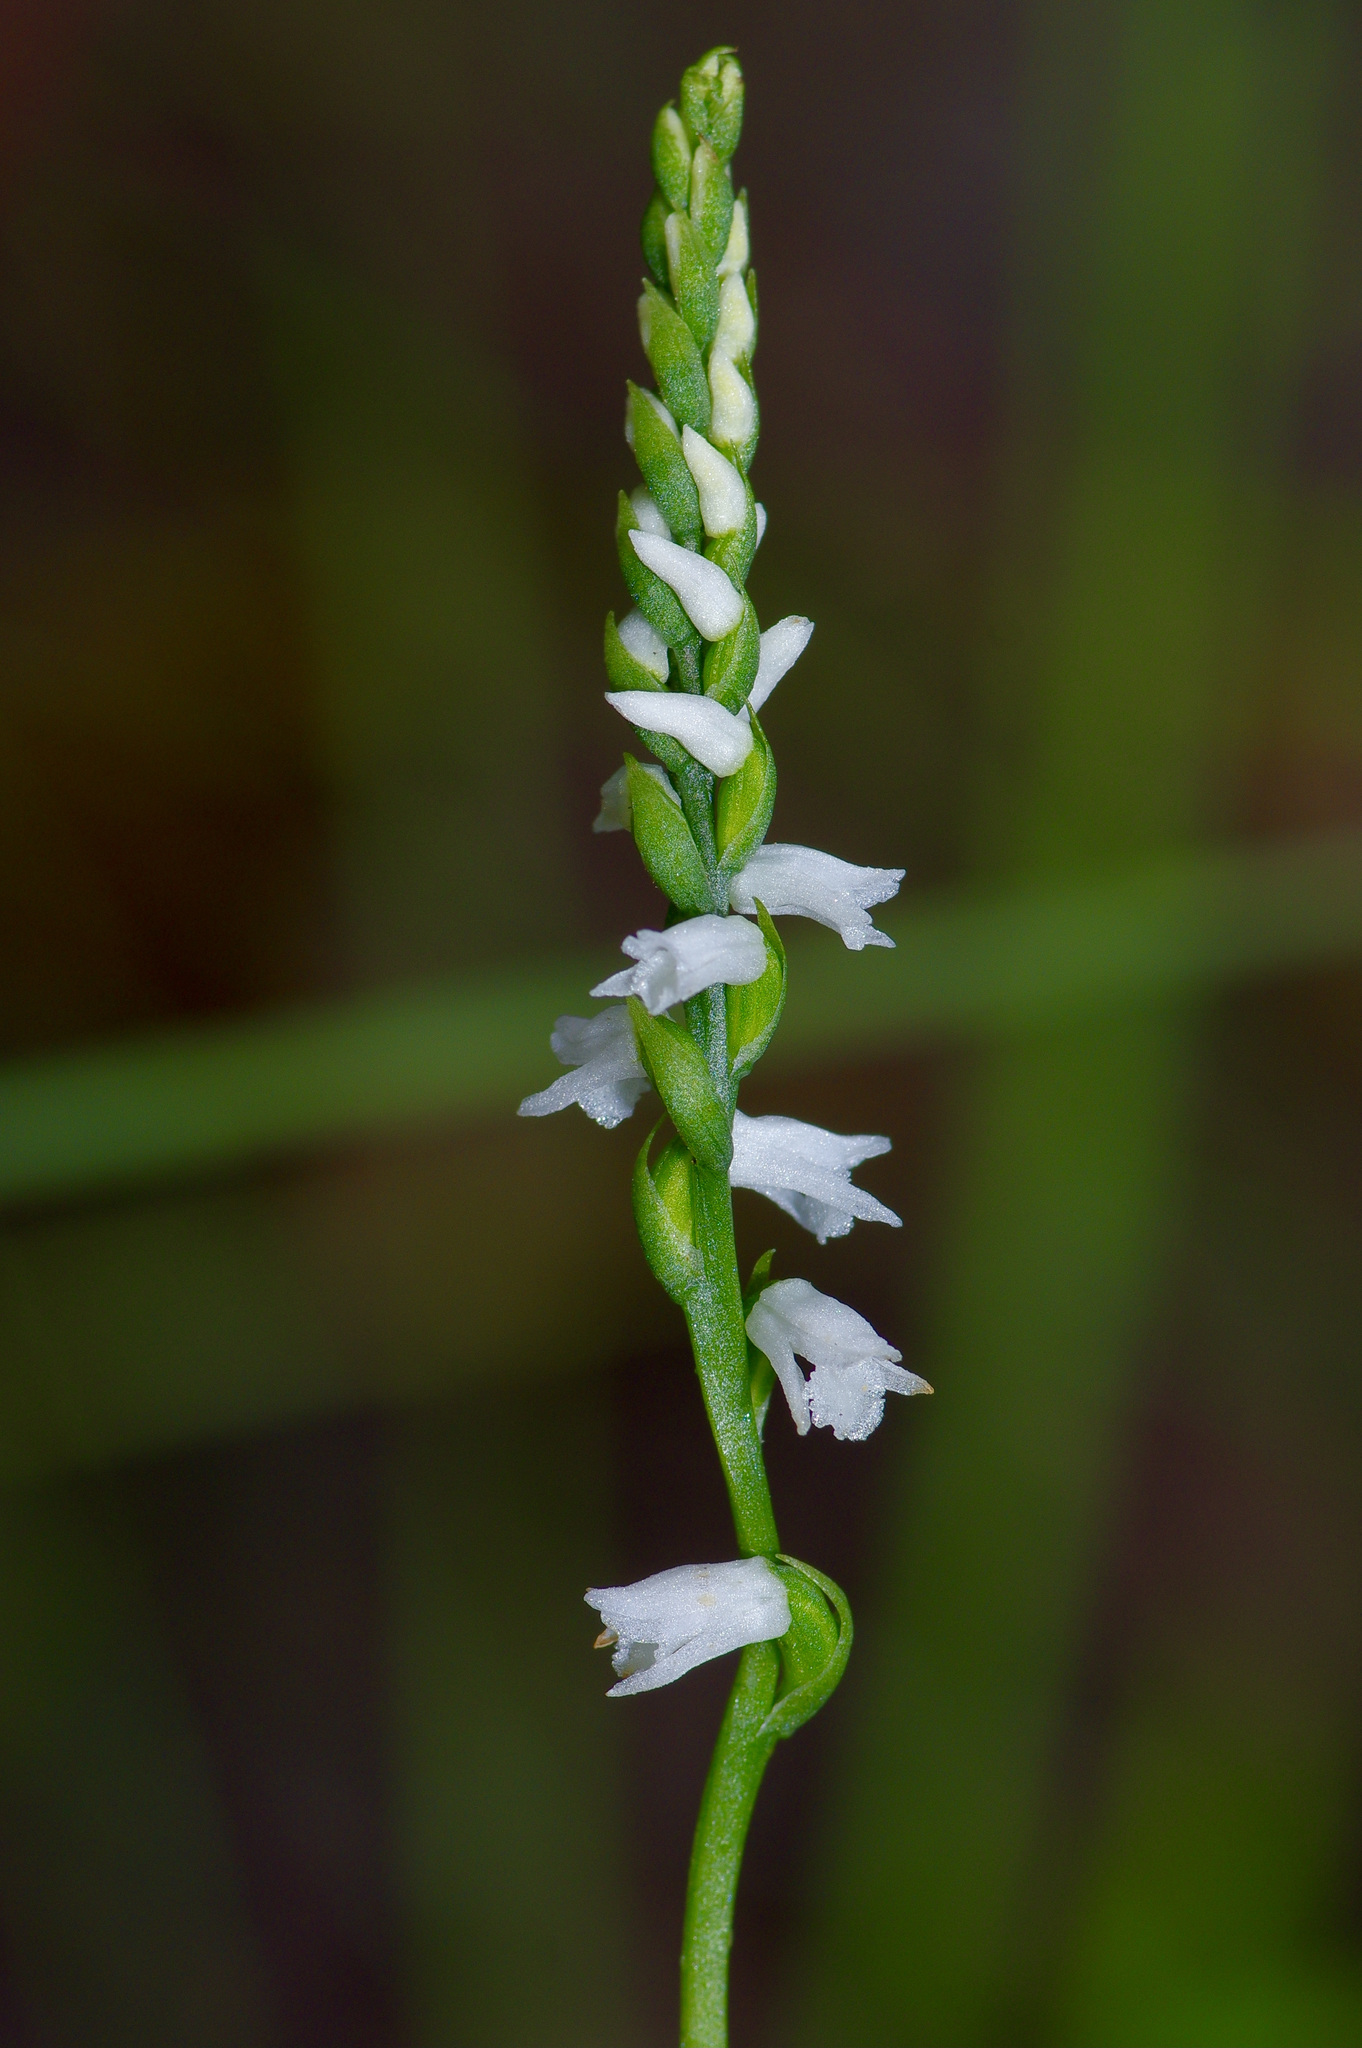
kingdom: Plantae
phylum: Tracheophyta
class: Liliopsida
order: Asparagales
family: Orchidaceae
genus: Spiranthes
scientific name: Spiranthes tuberosa
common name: Little ladies'-tresses
